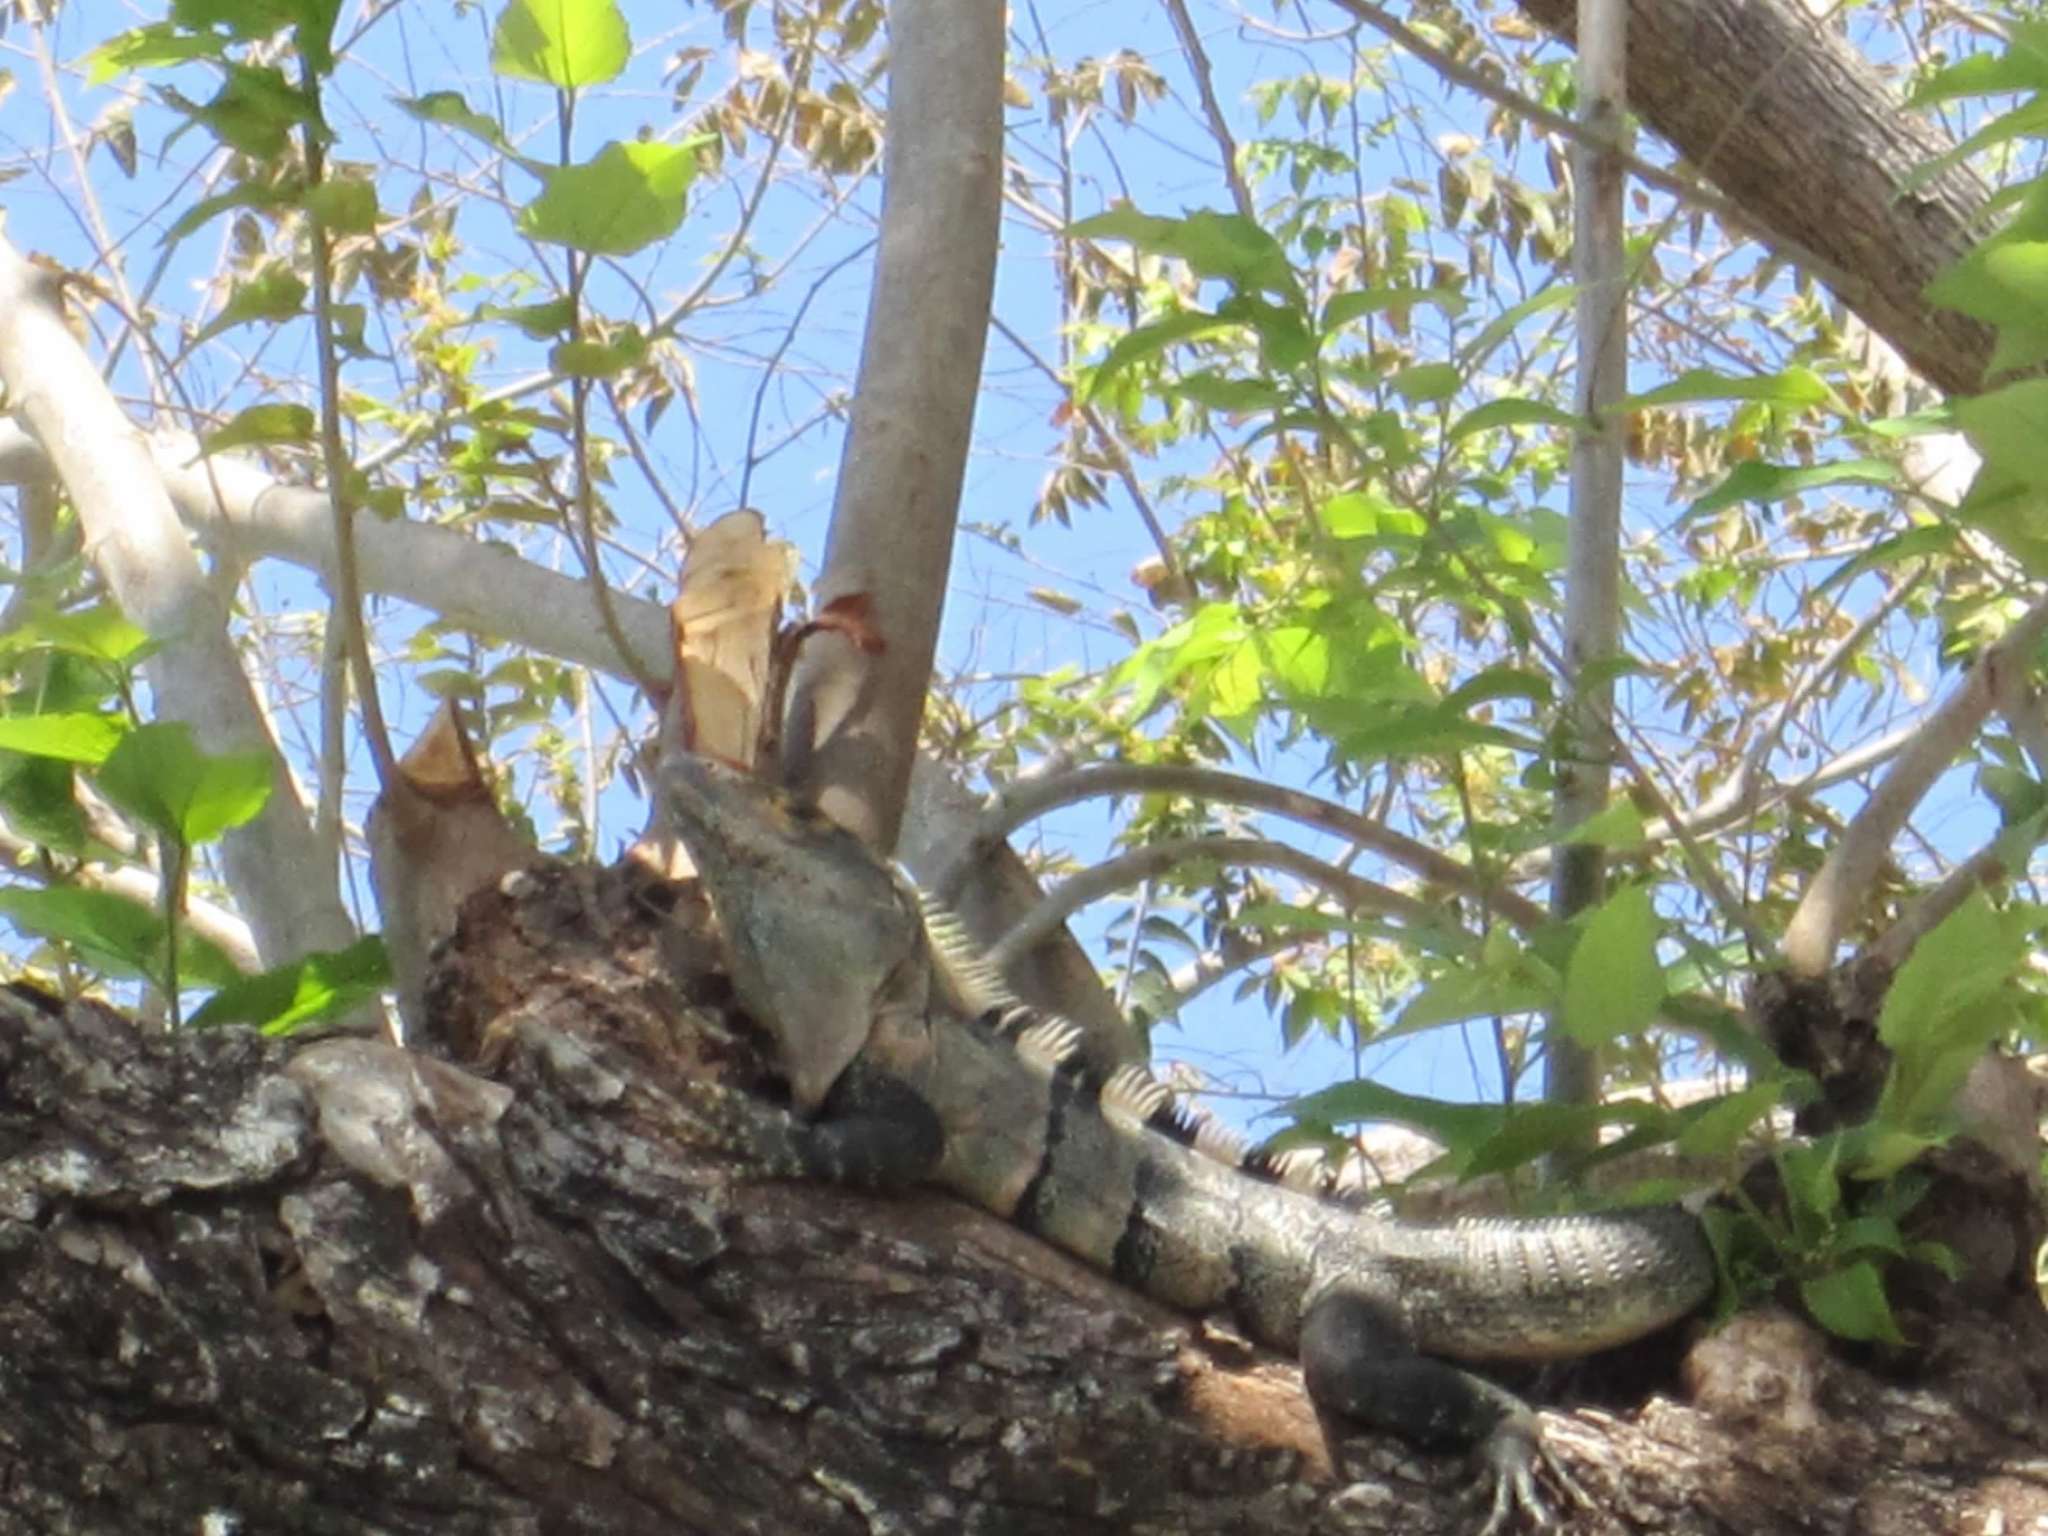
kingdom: Animalia
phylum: Chordata
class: Squamata
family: Iguanidae
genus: Ctenosaura
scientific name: Ctenosaura similis
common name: Black spiny-tailed iguana
